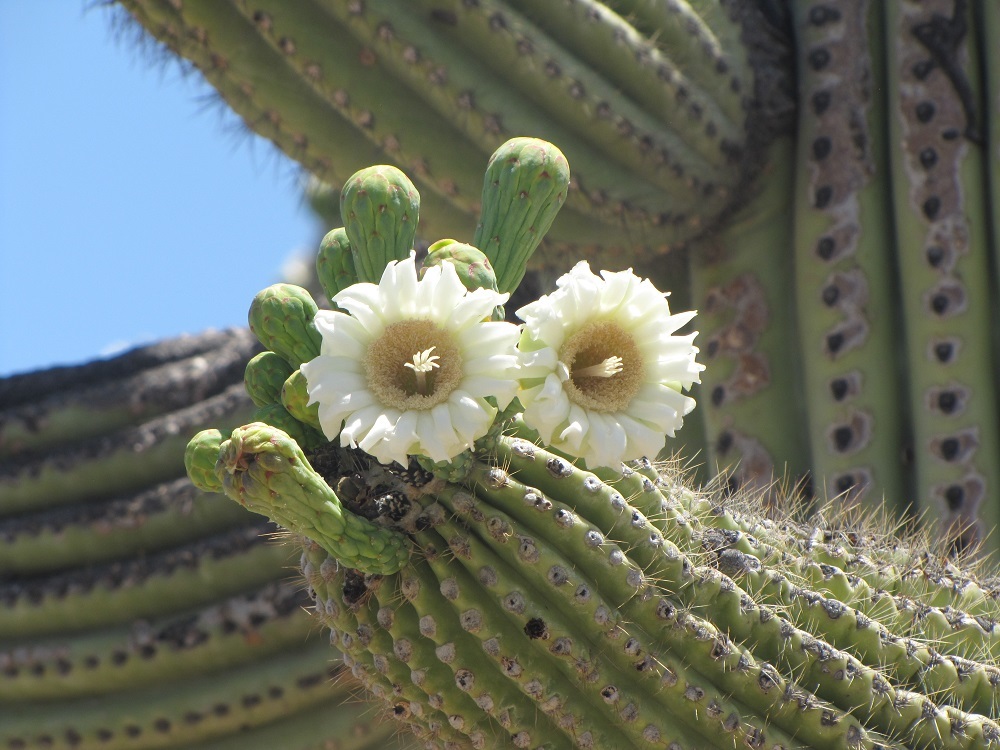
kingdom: Plantae
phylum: Tracheophyta
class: Magnoliopsida
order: Caryophyllales
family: Cactaceae
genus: Carnegiea
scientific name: Carnegiea gigantea
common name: Saguaro
